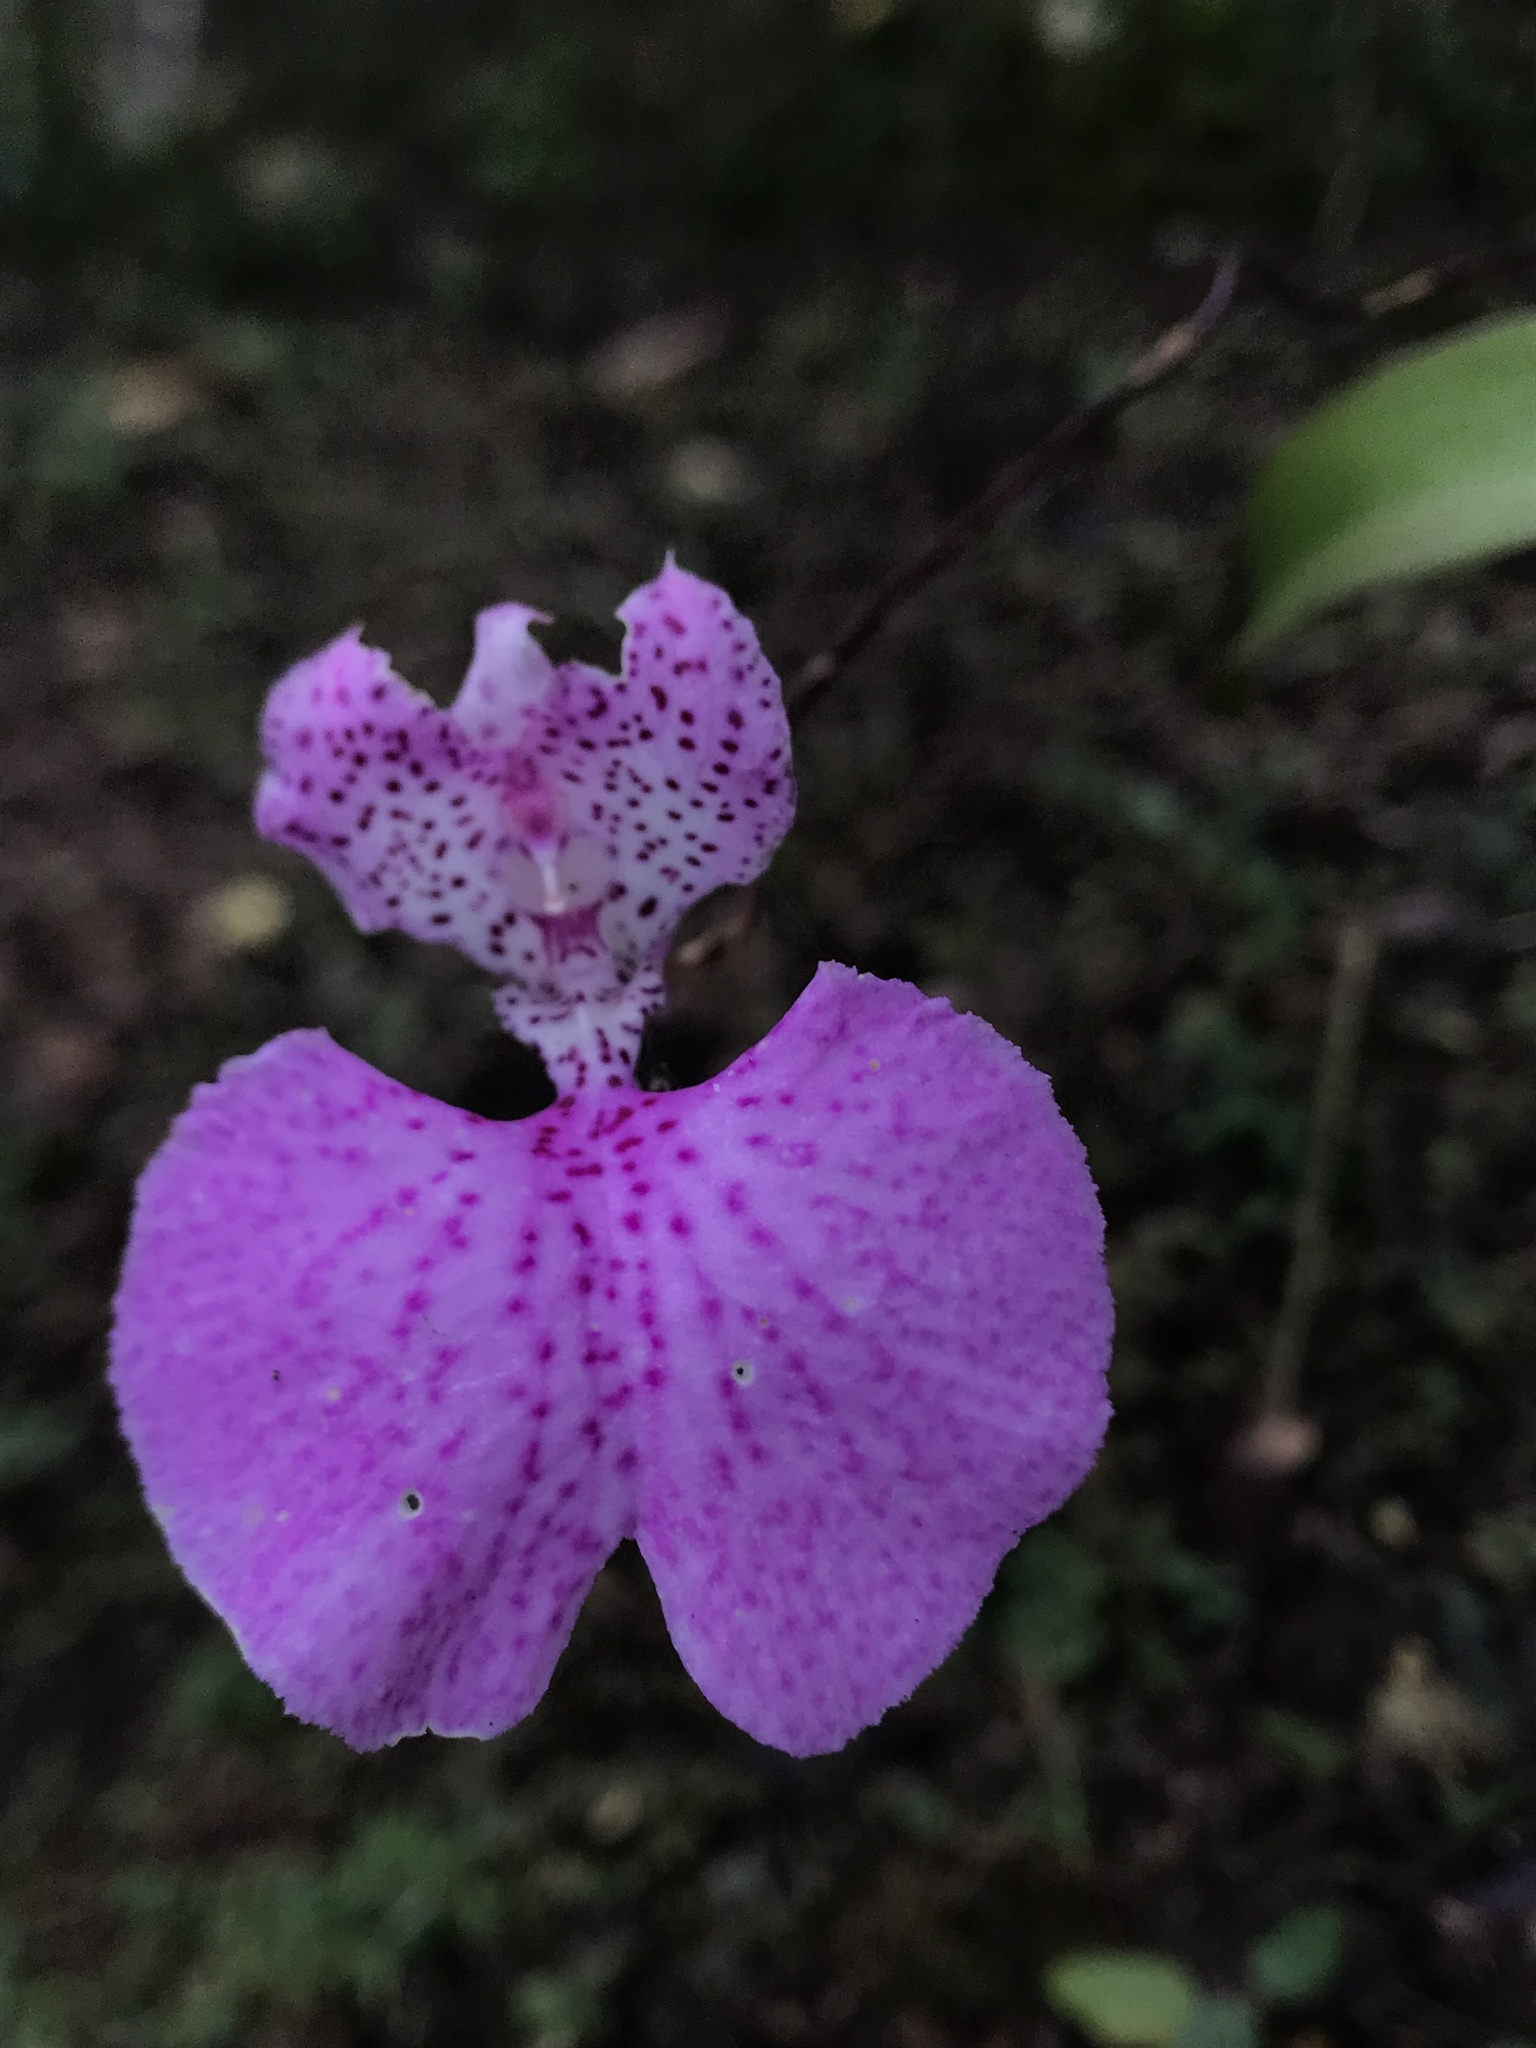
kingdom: Plantae
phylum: Tracheophyta
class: Liliopsida
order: Asparagales
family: Orchidaceae
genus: Comparettia
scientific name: Comparettia macroplectron
